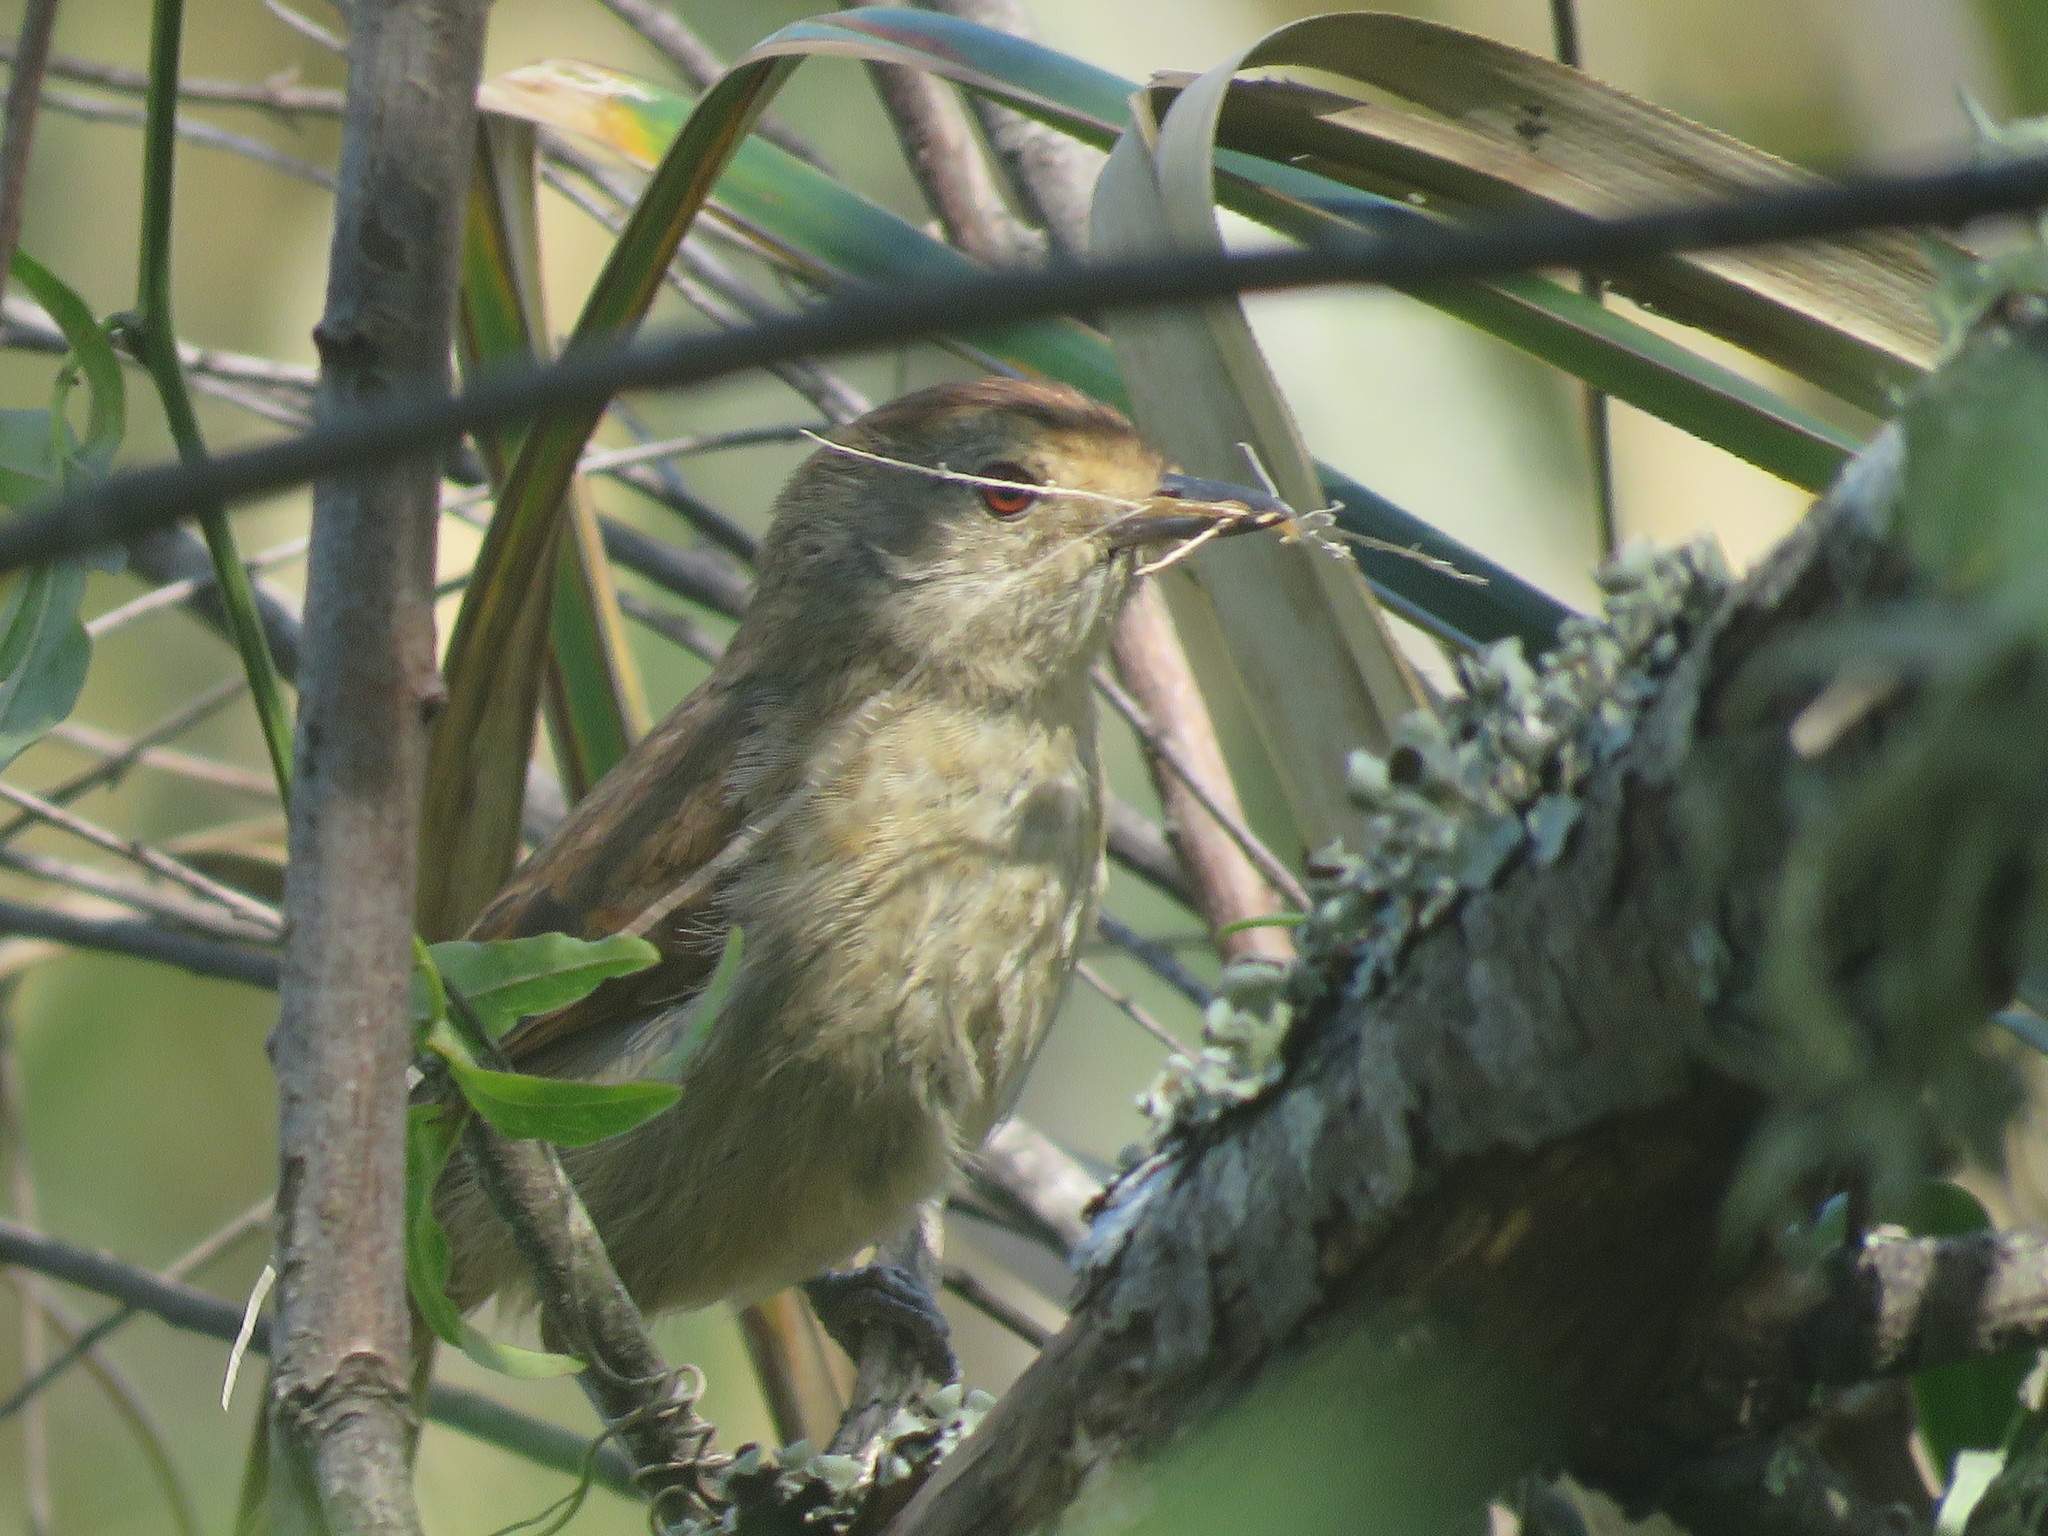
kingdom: Animalia
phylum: Chordata
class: Aves
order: Passeriformes
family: Thamnophilidae
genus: Thamnophilus
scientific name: Thamnophilus ruficapillus
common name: Rufous-capped antshrike
